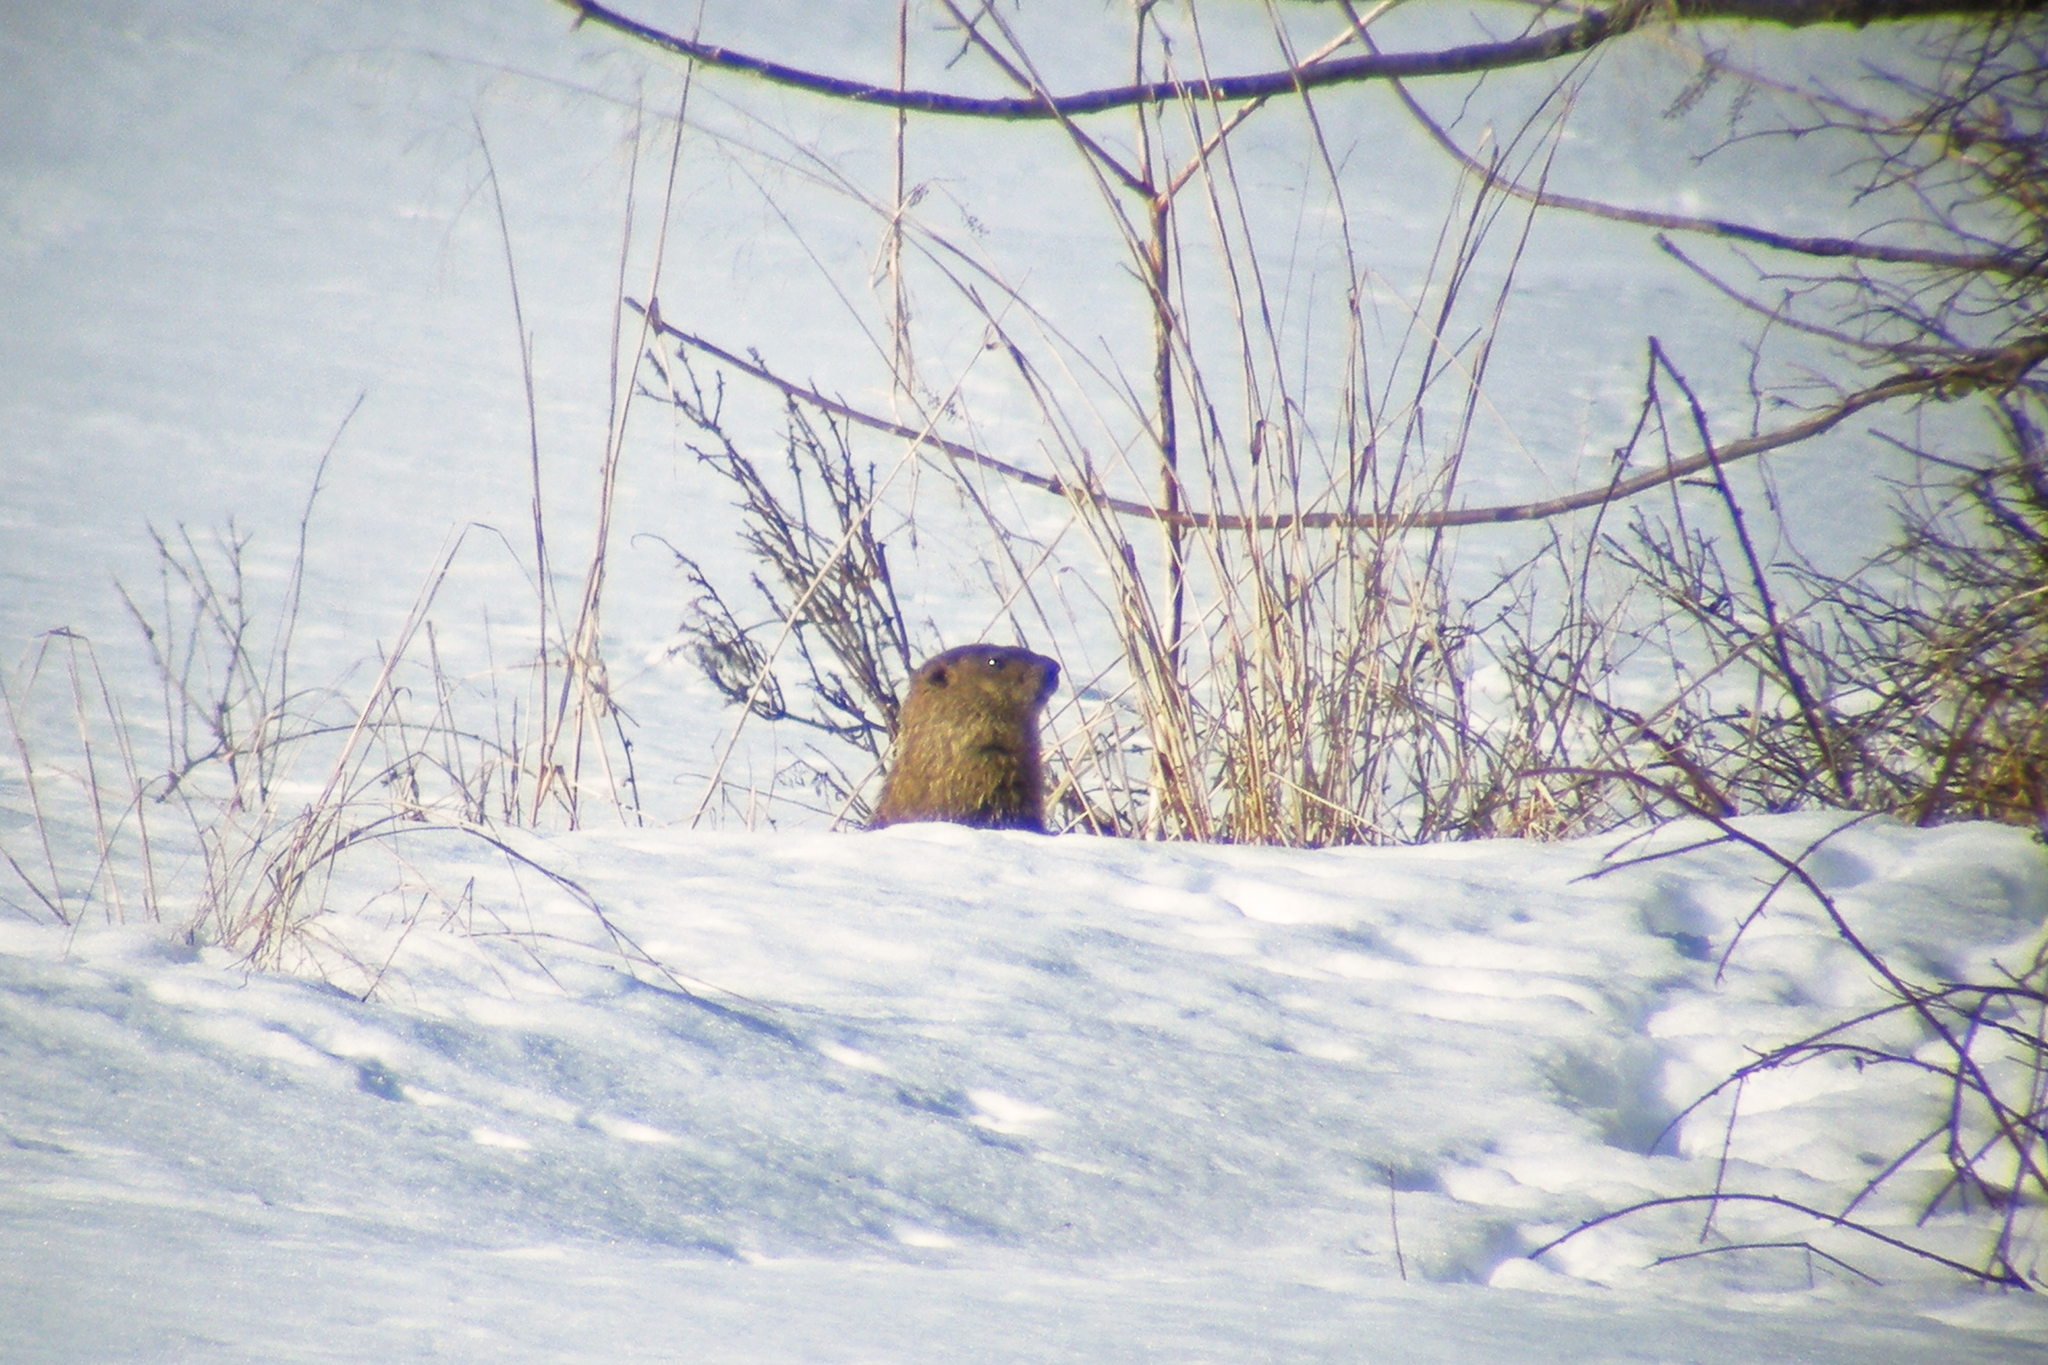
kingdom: Animalia
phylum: Chordata
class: Mammalia
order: Rodentia
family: Sciuridae
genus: Marmota
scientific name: Marmota monax
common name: Groundhog
